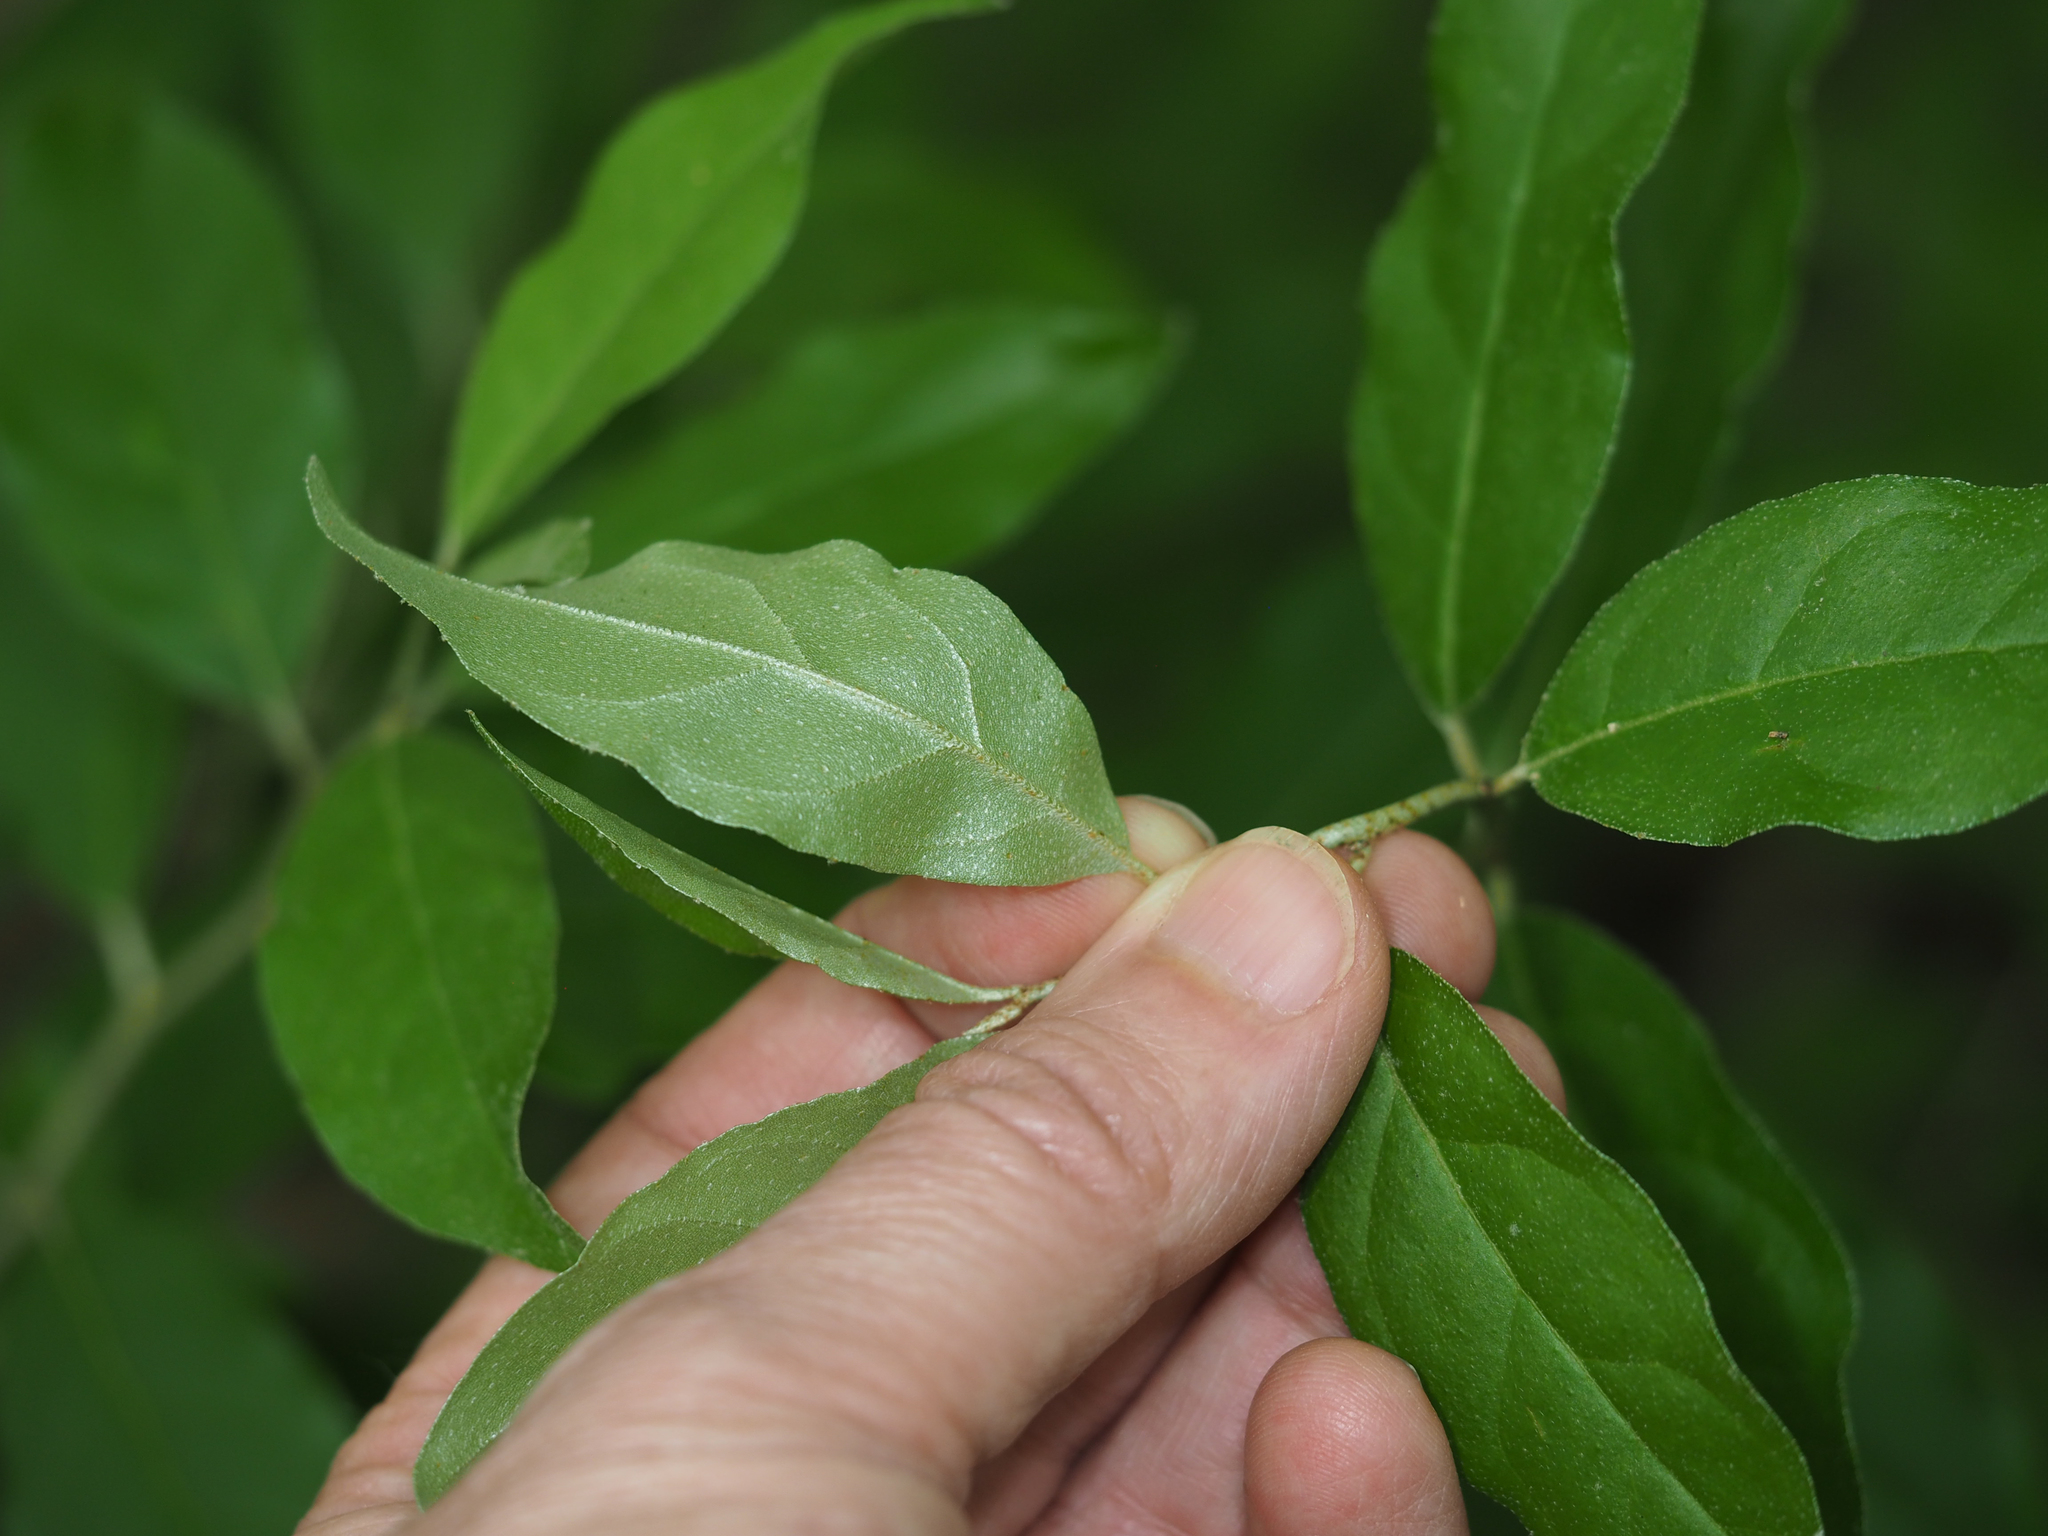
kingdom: Plantae
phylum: Tracheophyta
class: Magnoliopsida
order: Rosales
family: Elaeagnaceae
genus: Elaeagnus
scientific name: Elaeagnus umbellata
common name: Autumn olive
